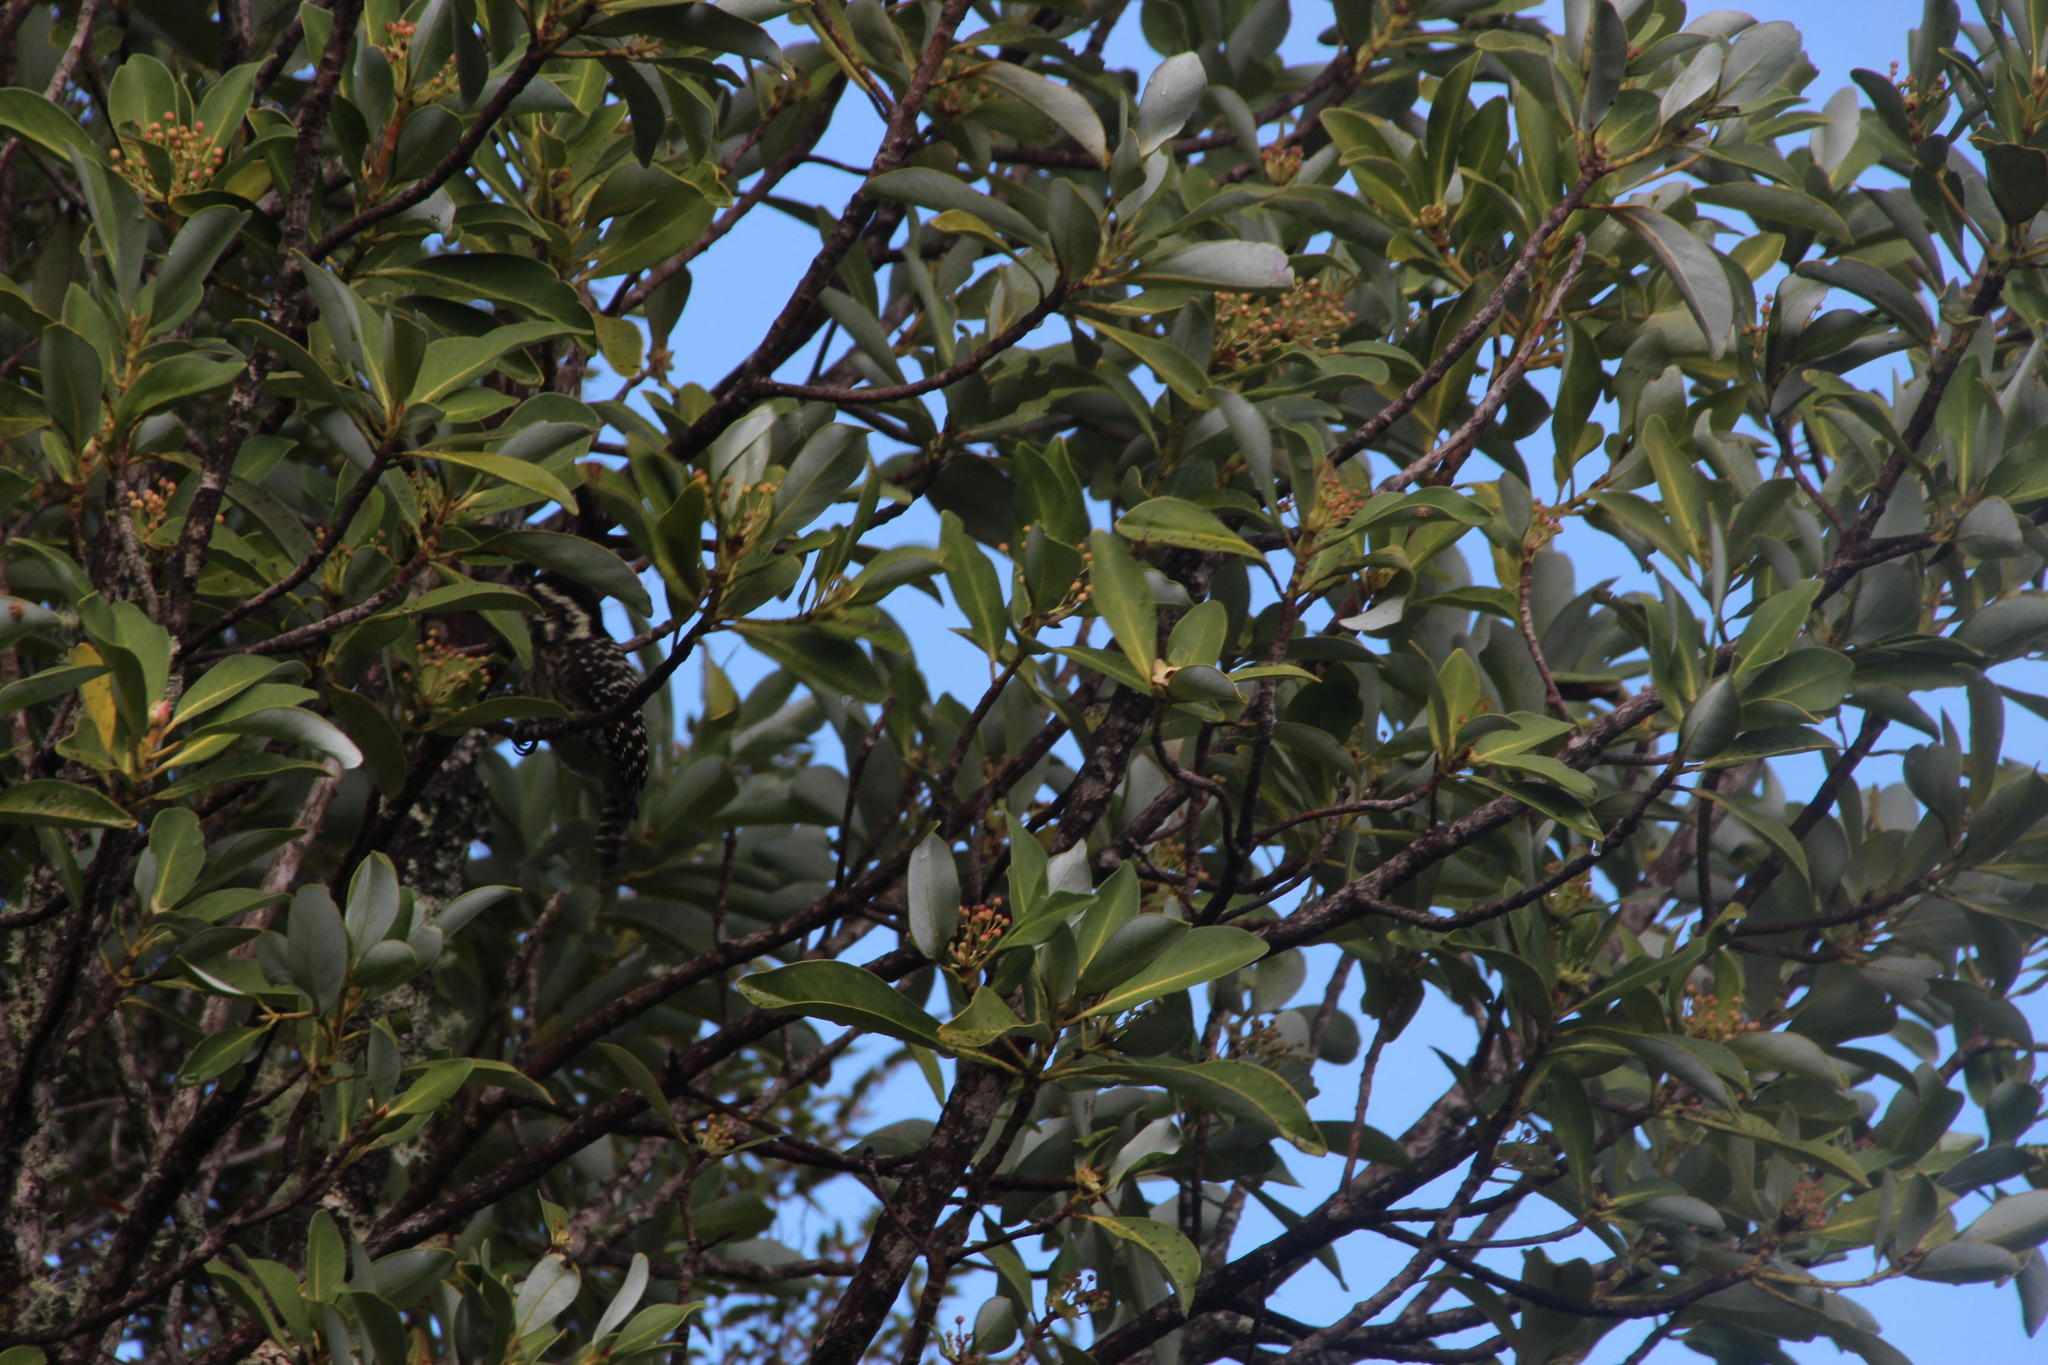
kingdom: Plantae
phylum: Tracheophyta
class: Magnoliopsida
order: Canellales
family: Winteraceae
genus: Drimys
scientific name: Drimys winteri
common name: Winter's-bark
